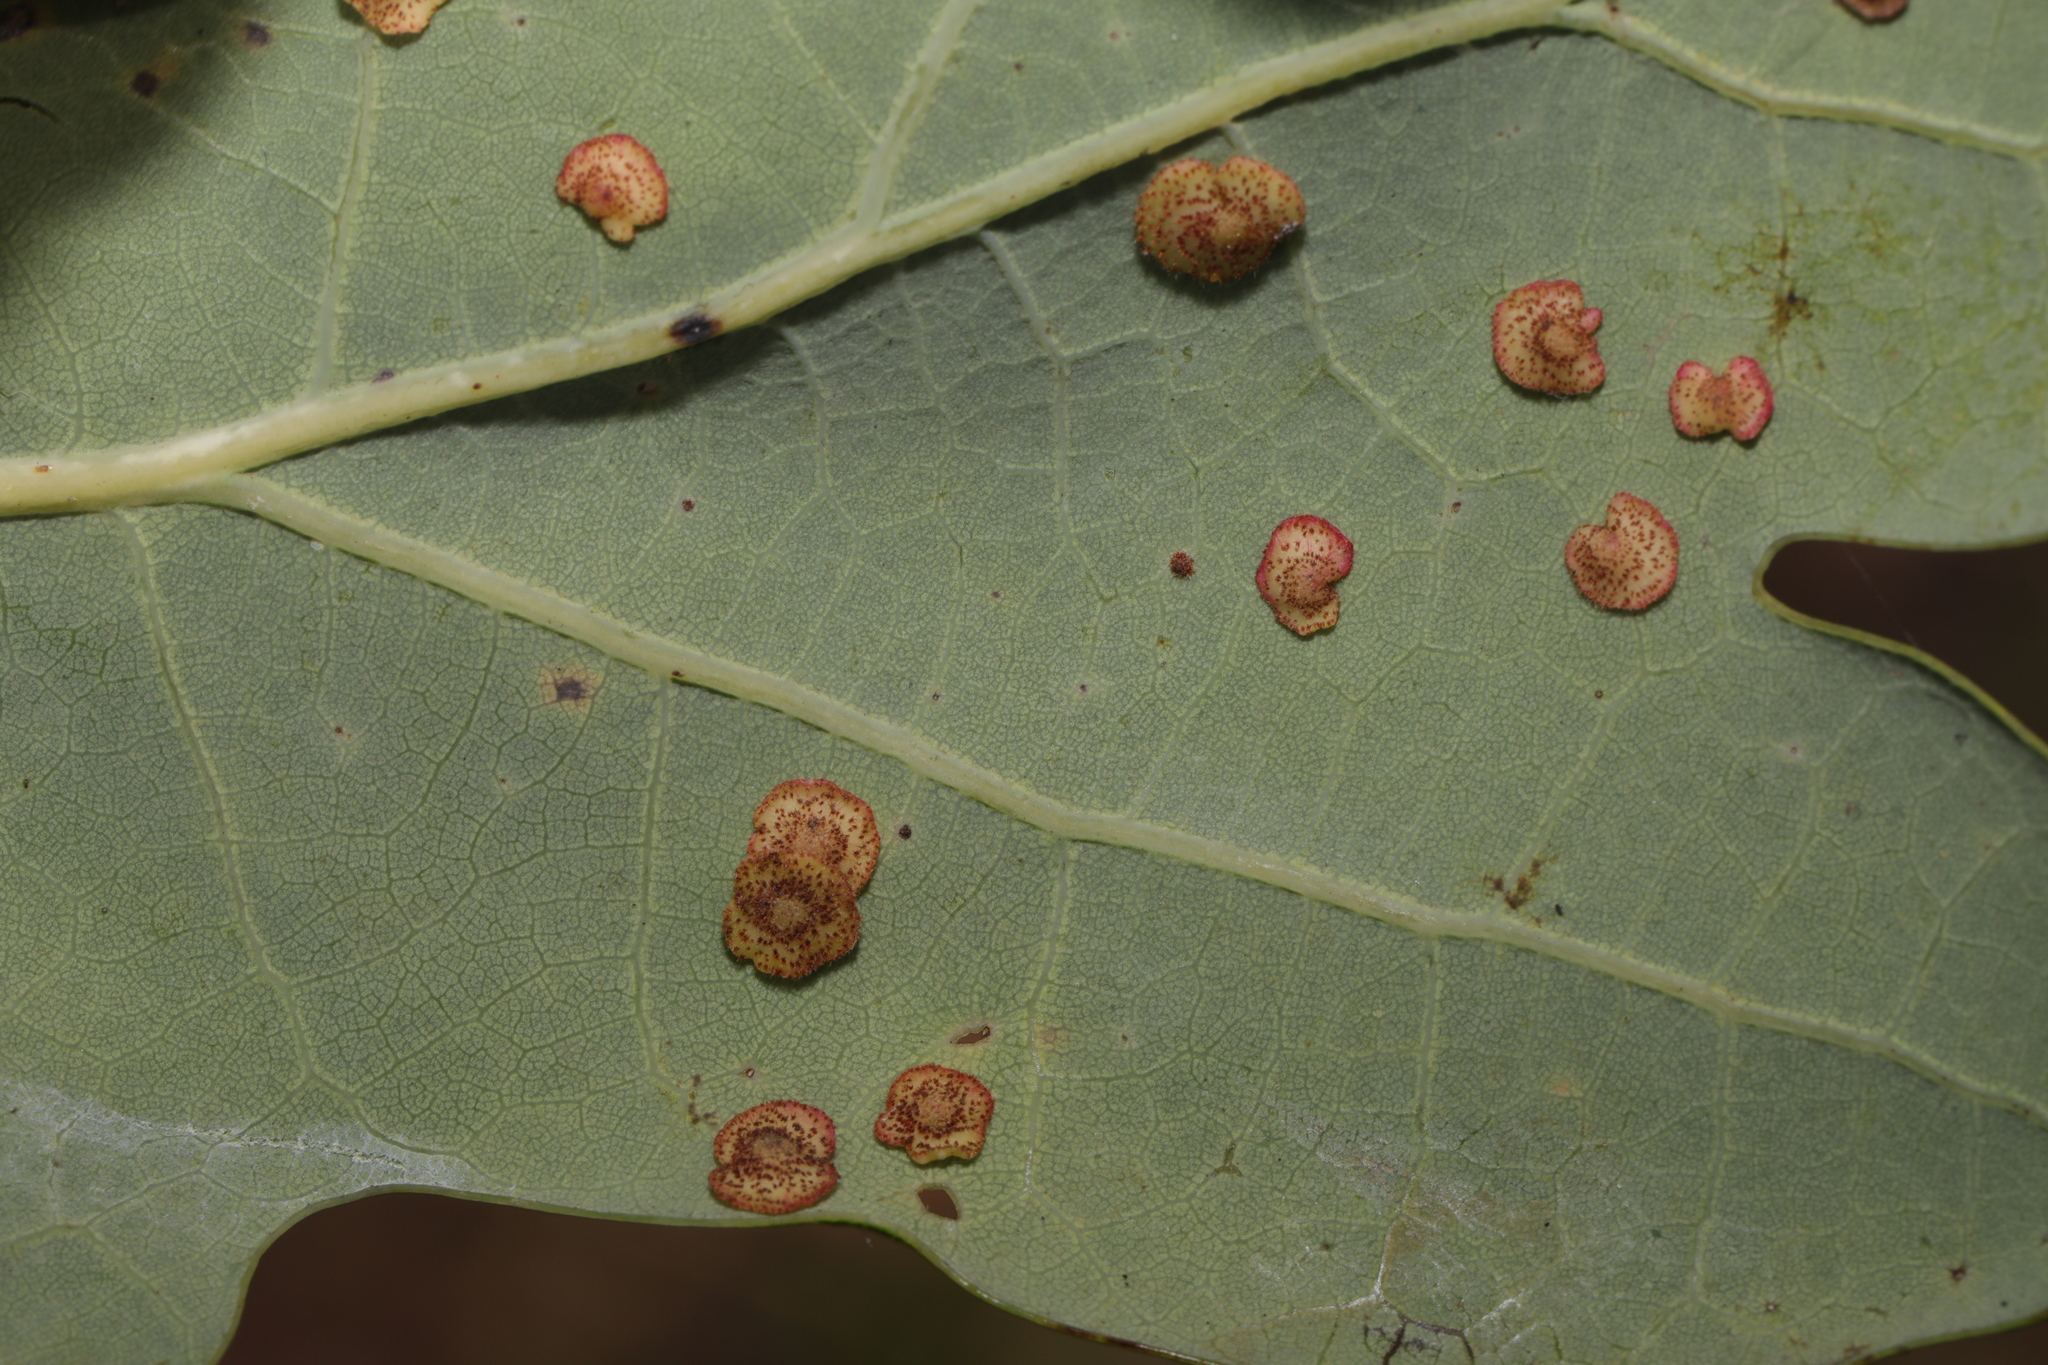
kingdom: Animalia
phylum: Arthropoda
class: Insecta
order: Hymenoptera
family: Cynipidae
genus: Neuroterus
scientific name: Neuroterus quercusbaccarum
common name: Common spangle gall
